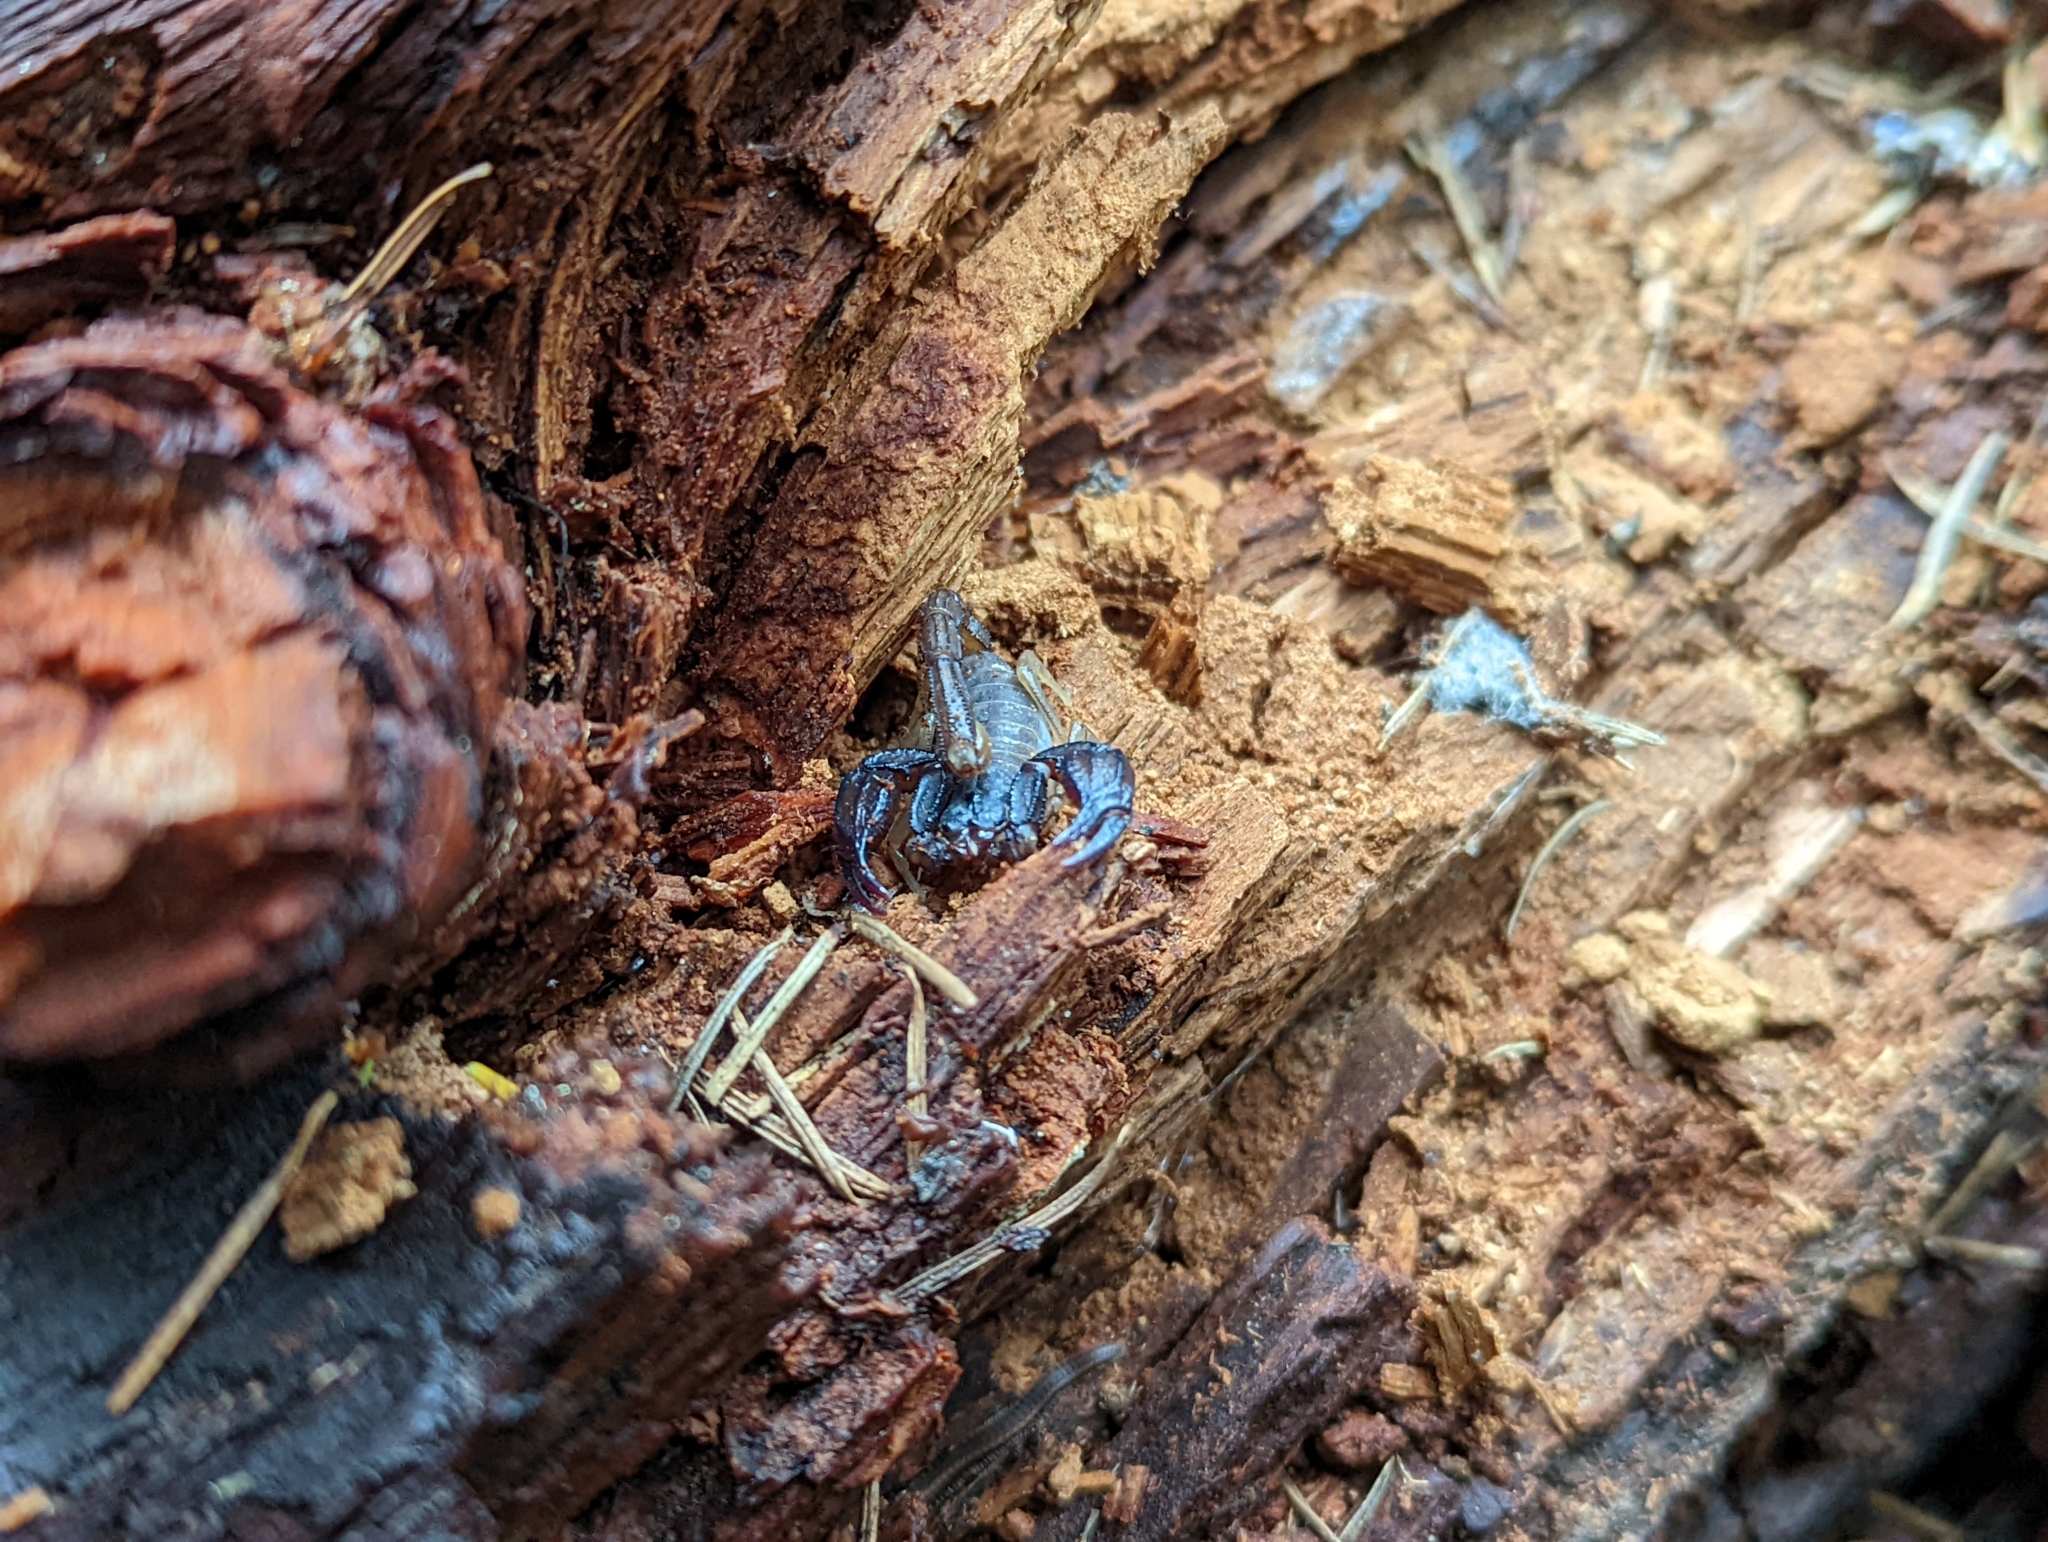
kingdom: Animalia
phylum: Arthropoda
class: Arachnida
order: Scorpiones
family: Chactidae
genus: Uroctonus
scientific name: Uroctonus mordax
